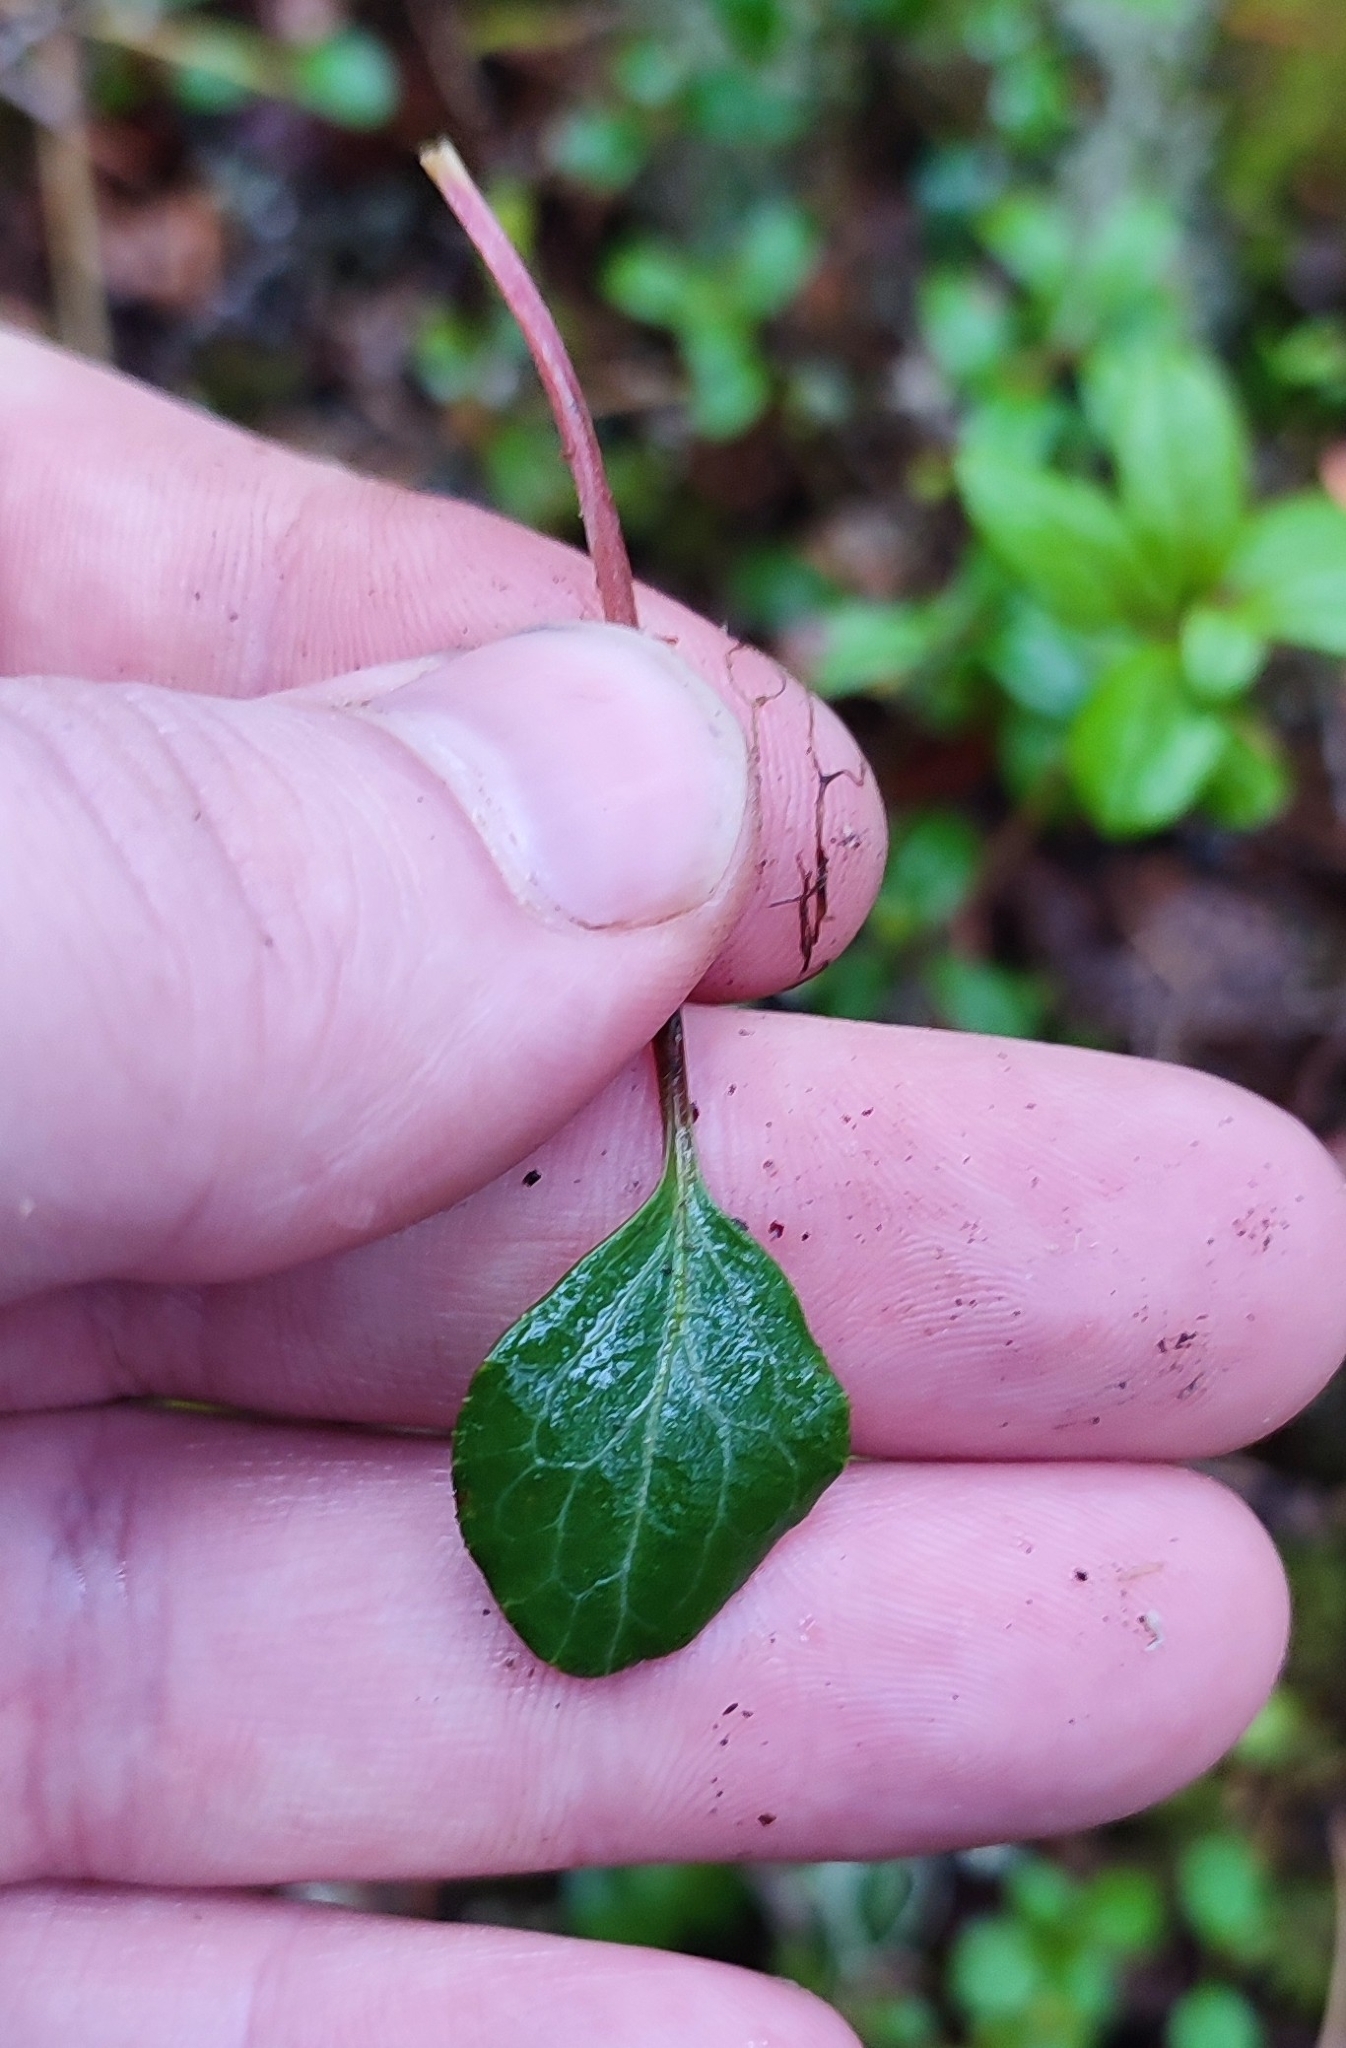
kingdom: Plantae
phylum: Tracheophyta
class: Magnoliopsida
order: Ericales
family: Ericaceae
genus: Pyrola
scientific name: Pyrola chlorantha
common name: Green wintergreen
